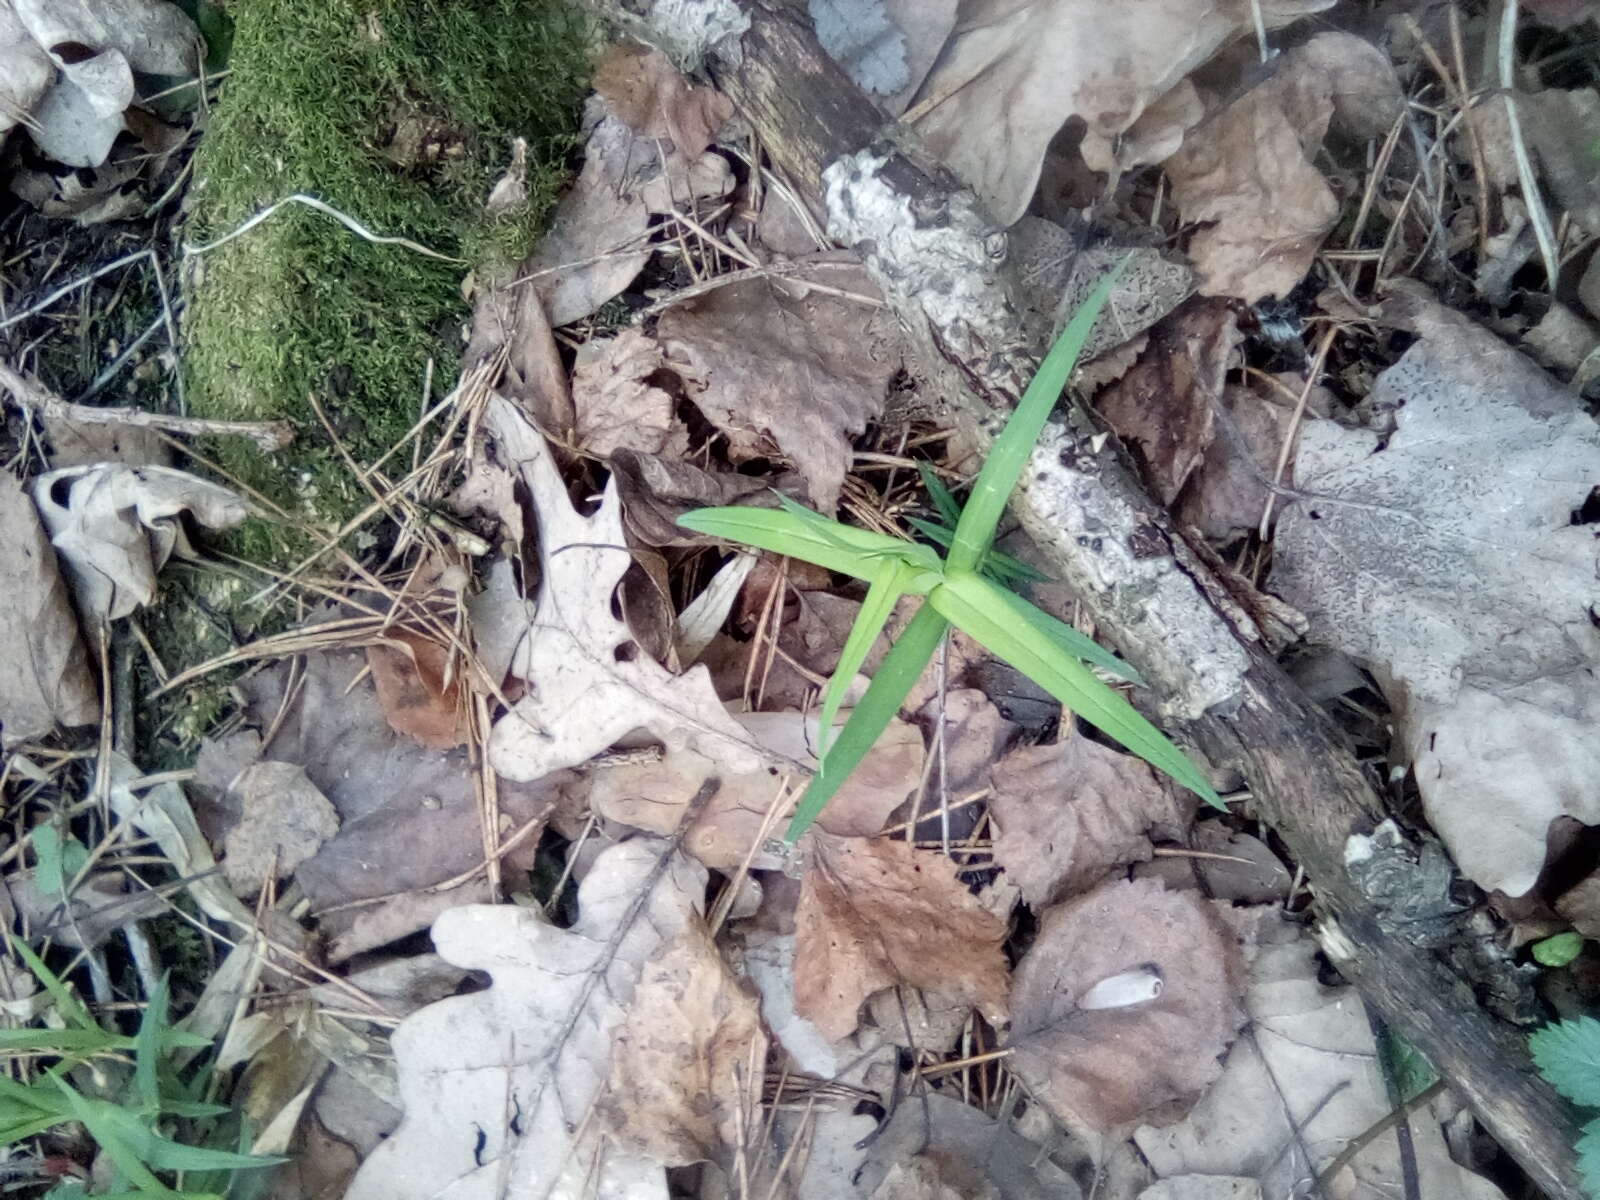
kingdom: Plantae
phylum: Tracheophyta
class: Magnoliopsida
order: Caryophyllales
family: Caryophyllaceae
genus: Rabelera
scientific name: Rabelera holostea
